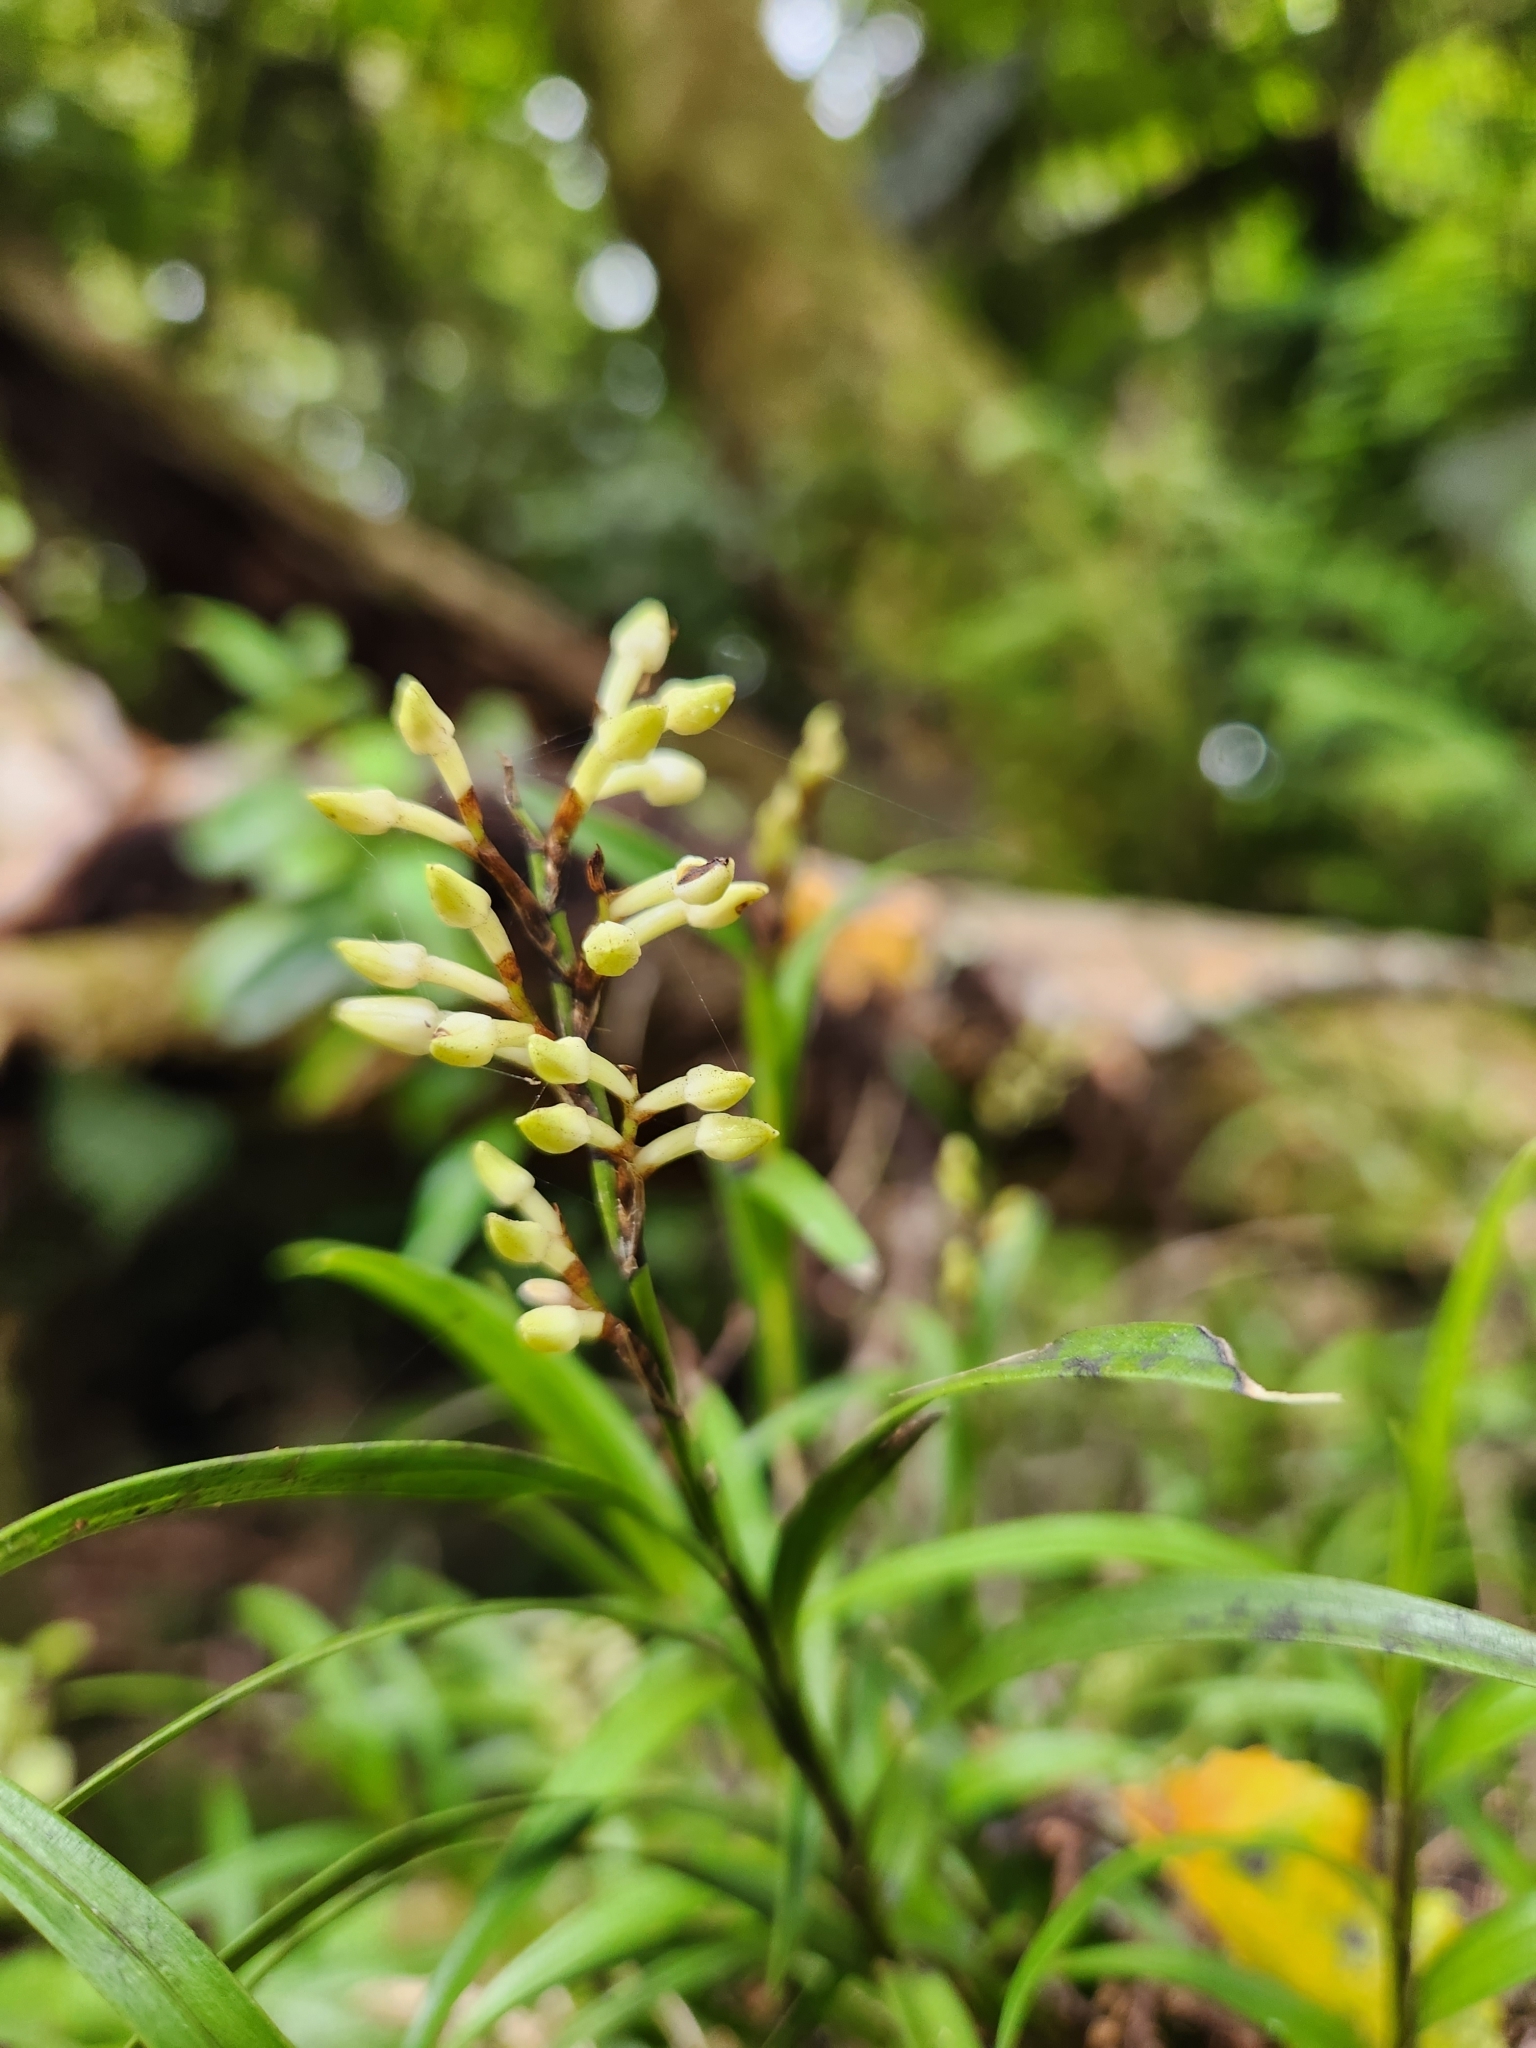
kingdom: Plantae
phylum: Tracheophyta
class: Liliopsida
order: Asparagales
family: Orchidaceae
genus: Earina
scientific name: Earina autumnalis
